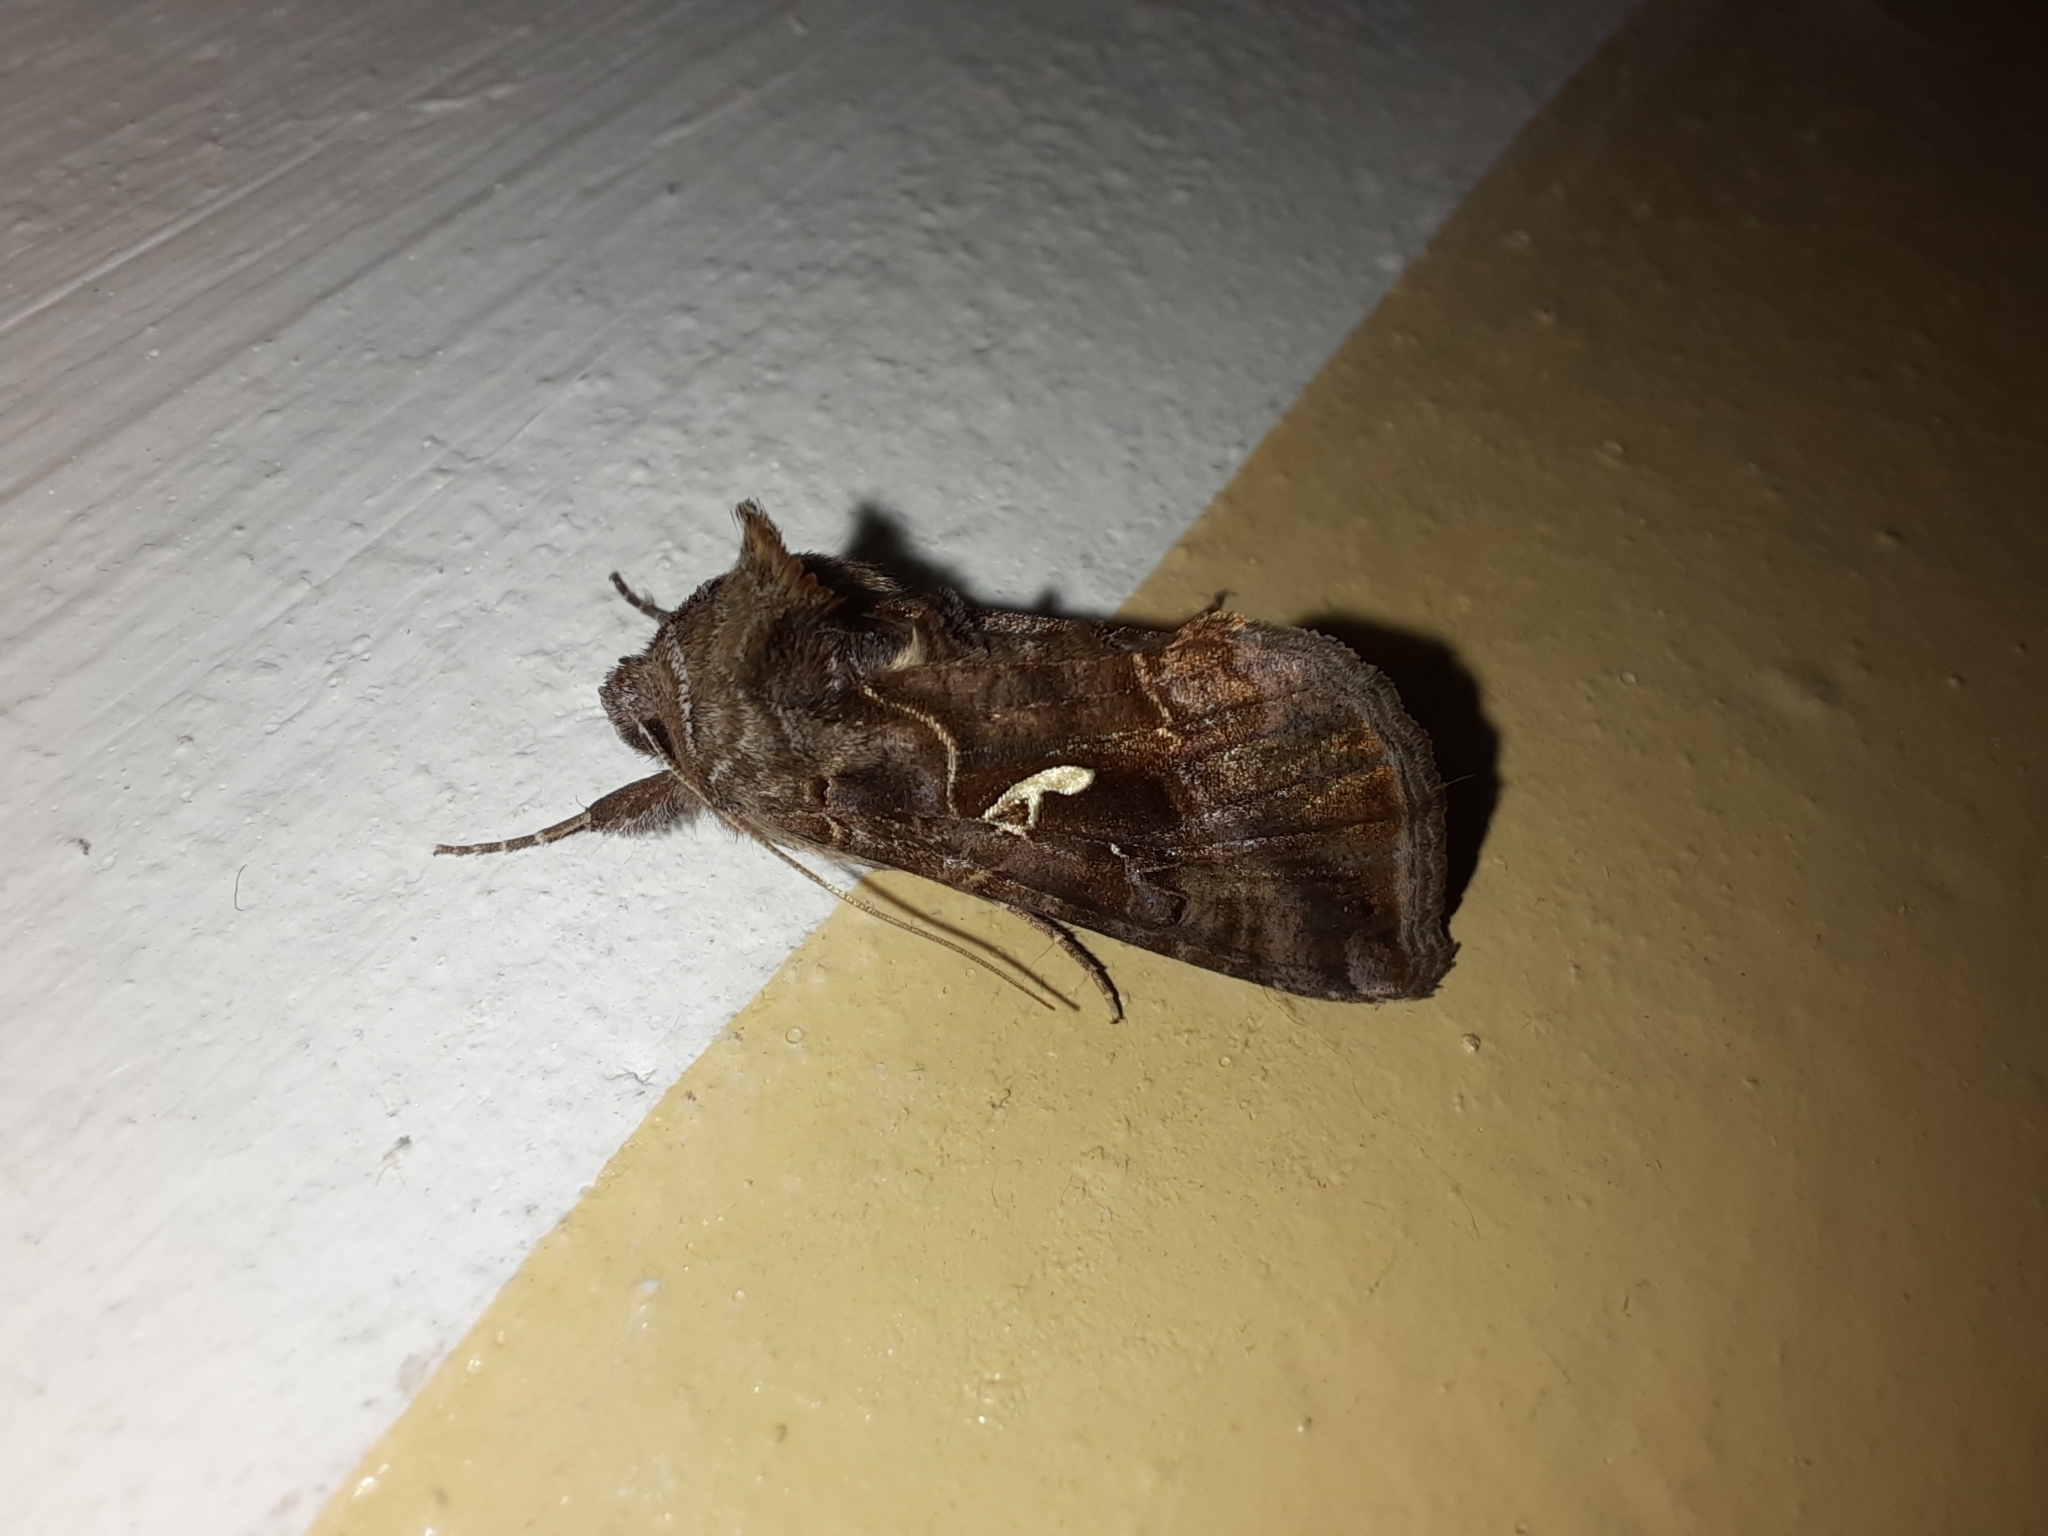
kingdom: Animalia
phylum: Arthropoda
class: Insecta
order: Lepidoptera
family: Noctuidae
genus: Autographa
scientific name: Autographa mandarina
